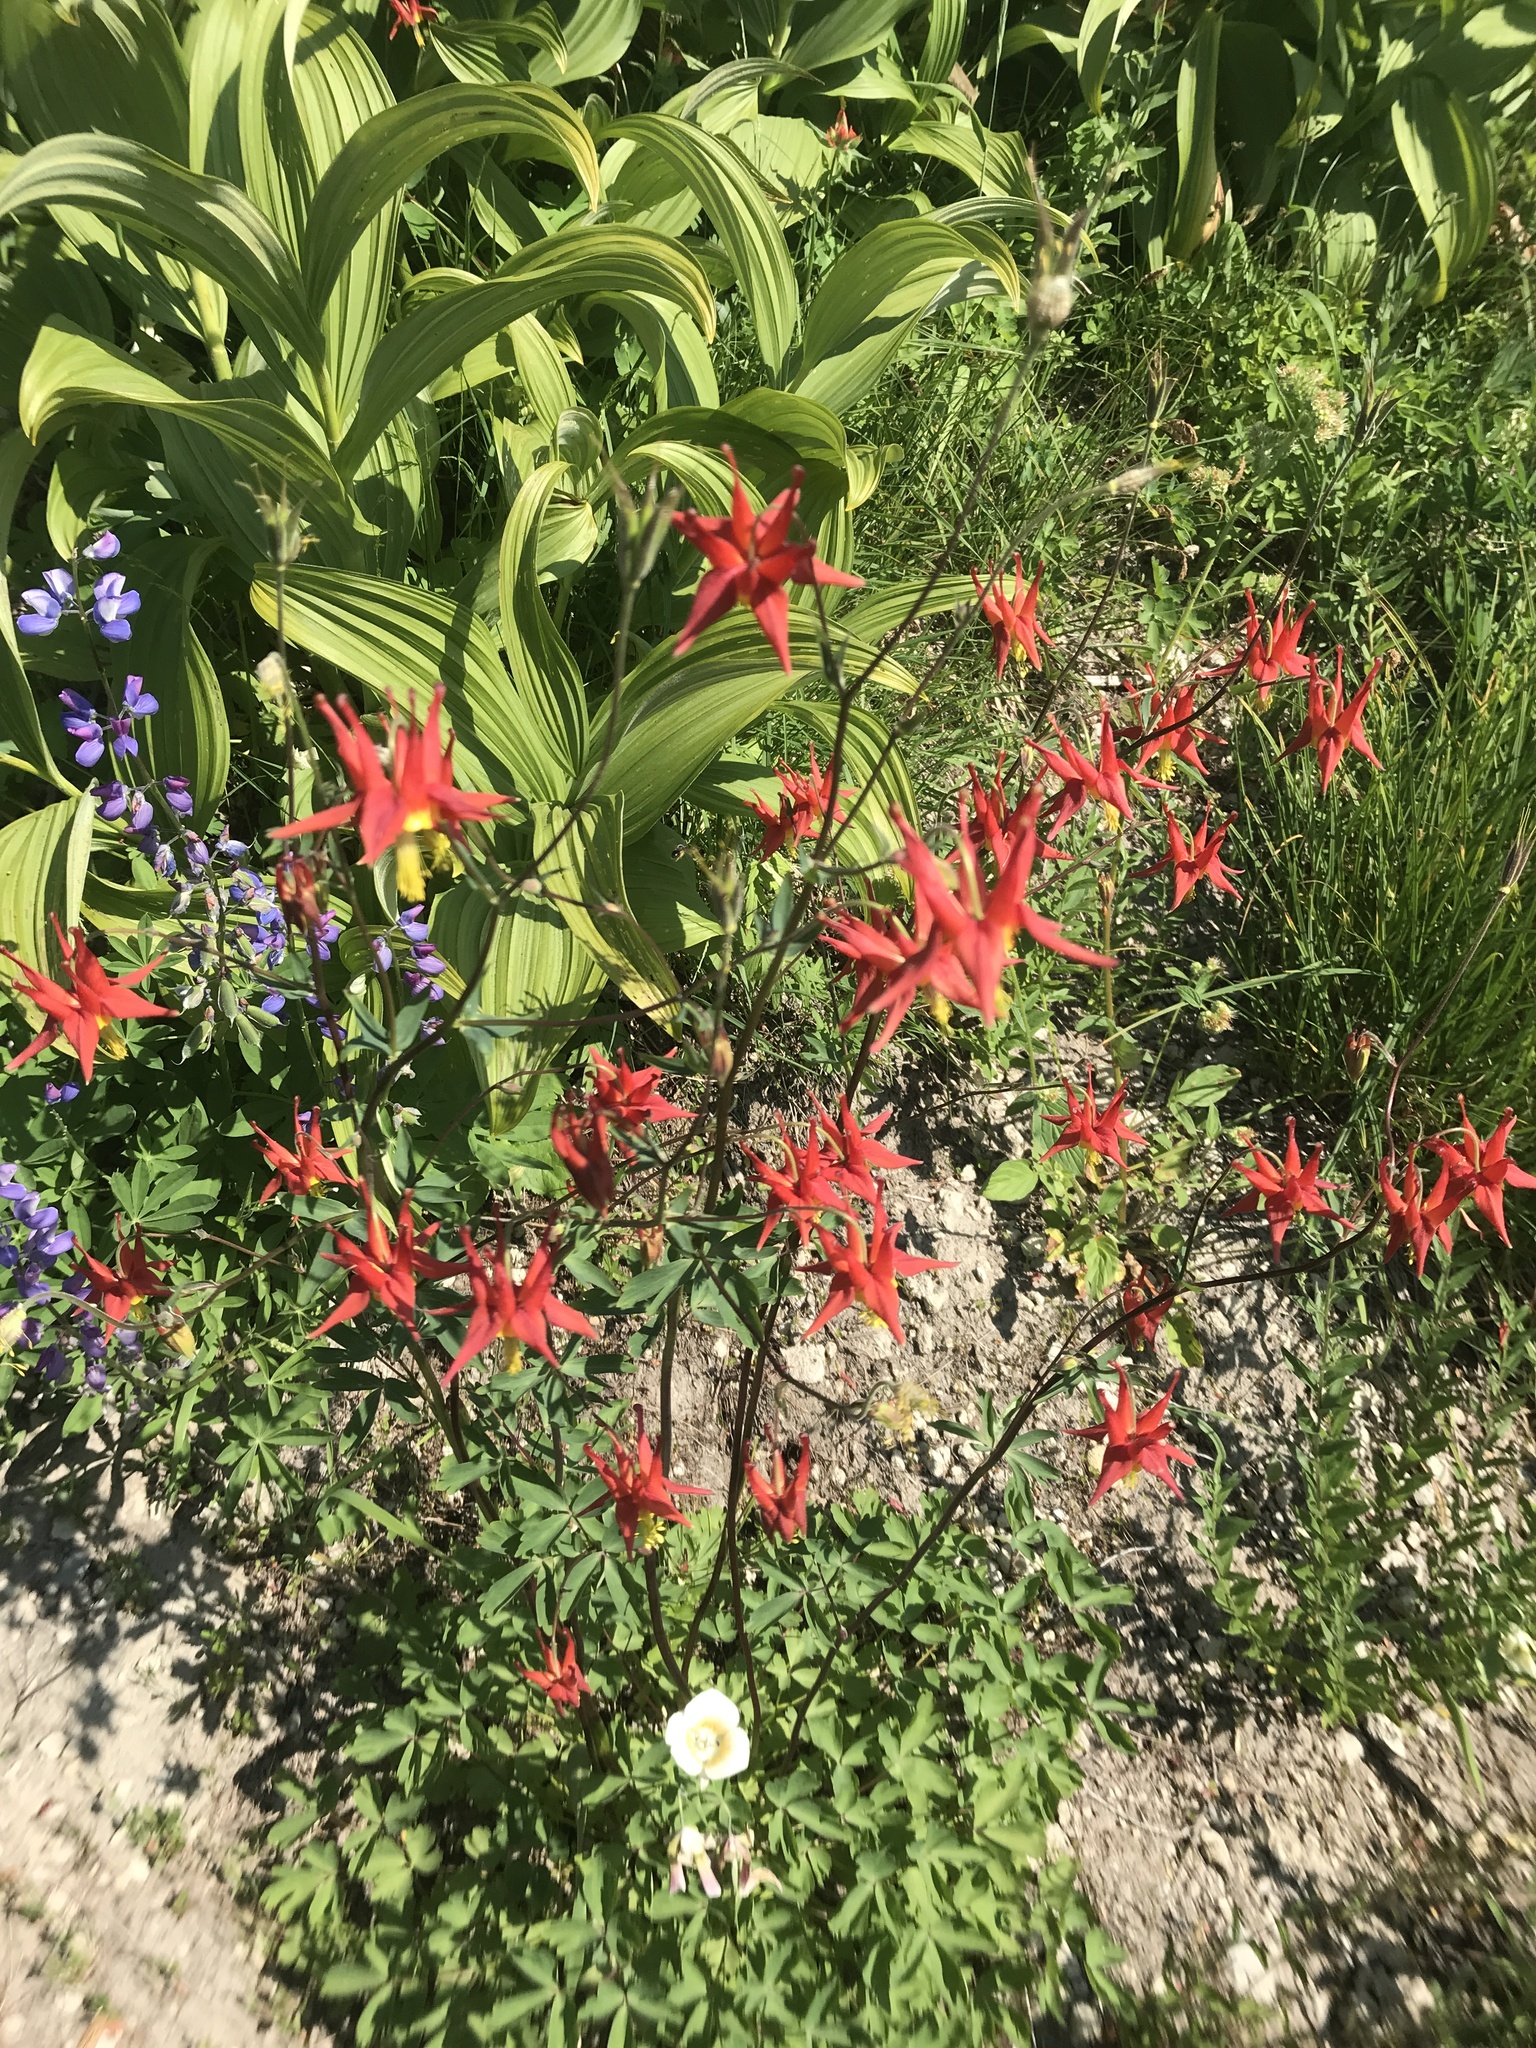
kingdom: Plantae
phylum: Tracheophyta
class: Magnoliopsida
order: Ranunculales
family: Ranunculaceae
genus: Aquilegia
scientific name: Aquilegia formosa
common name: Sitka columbine
